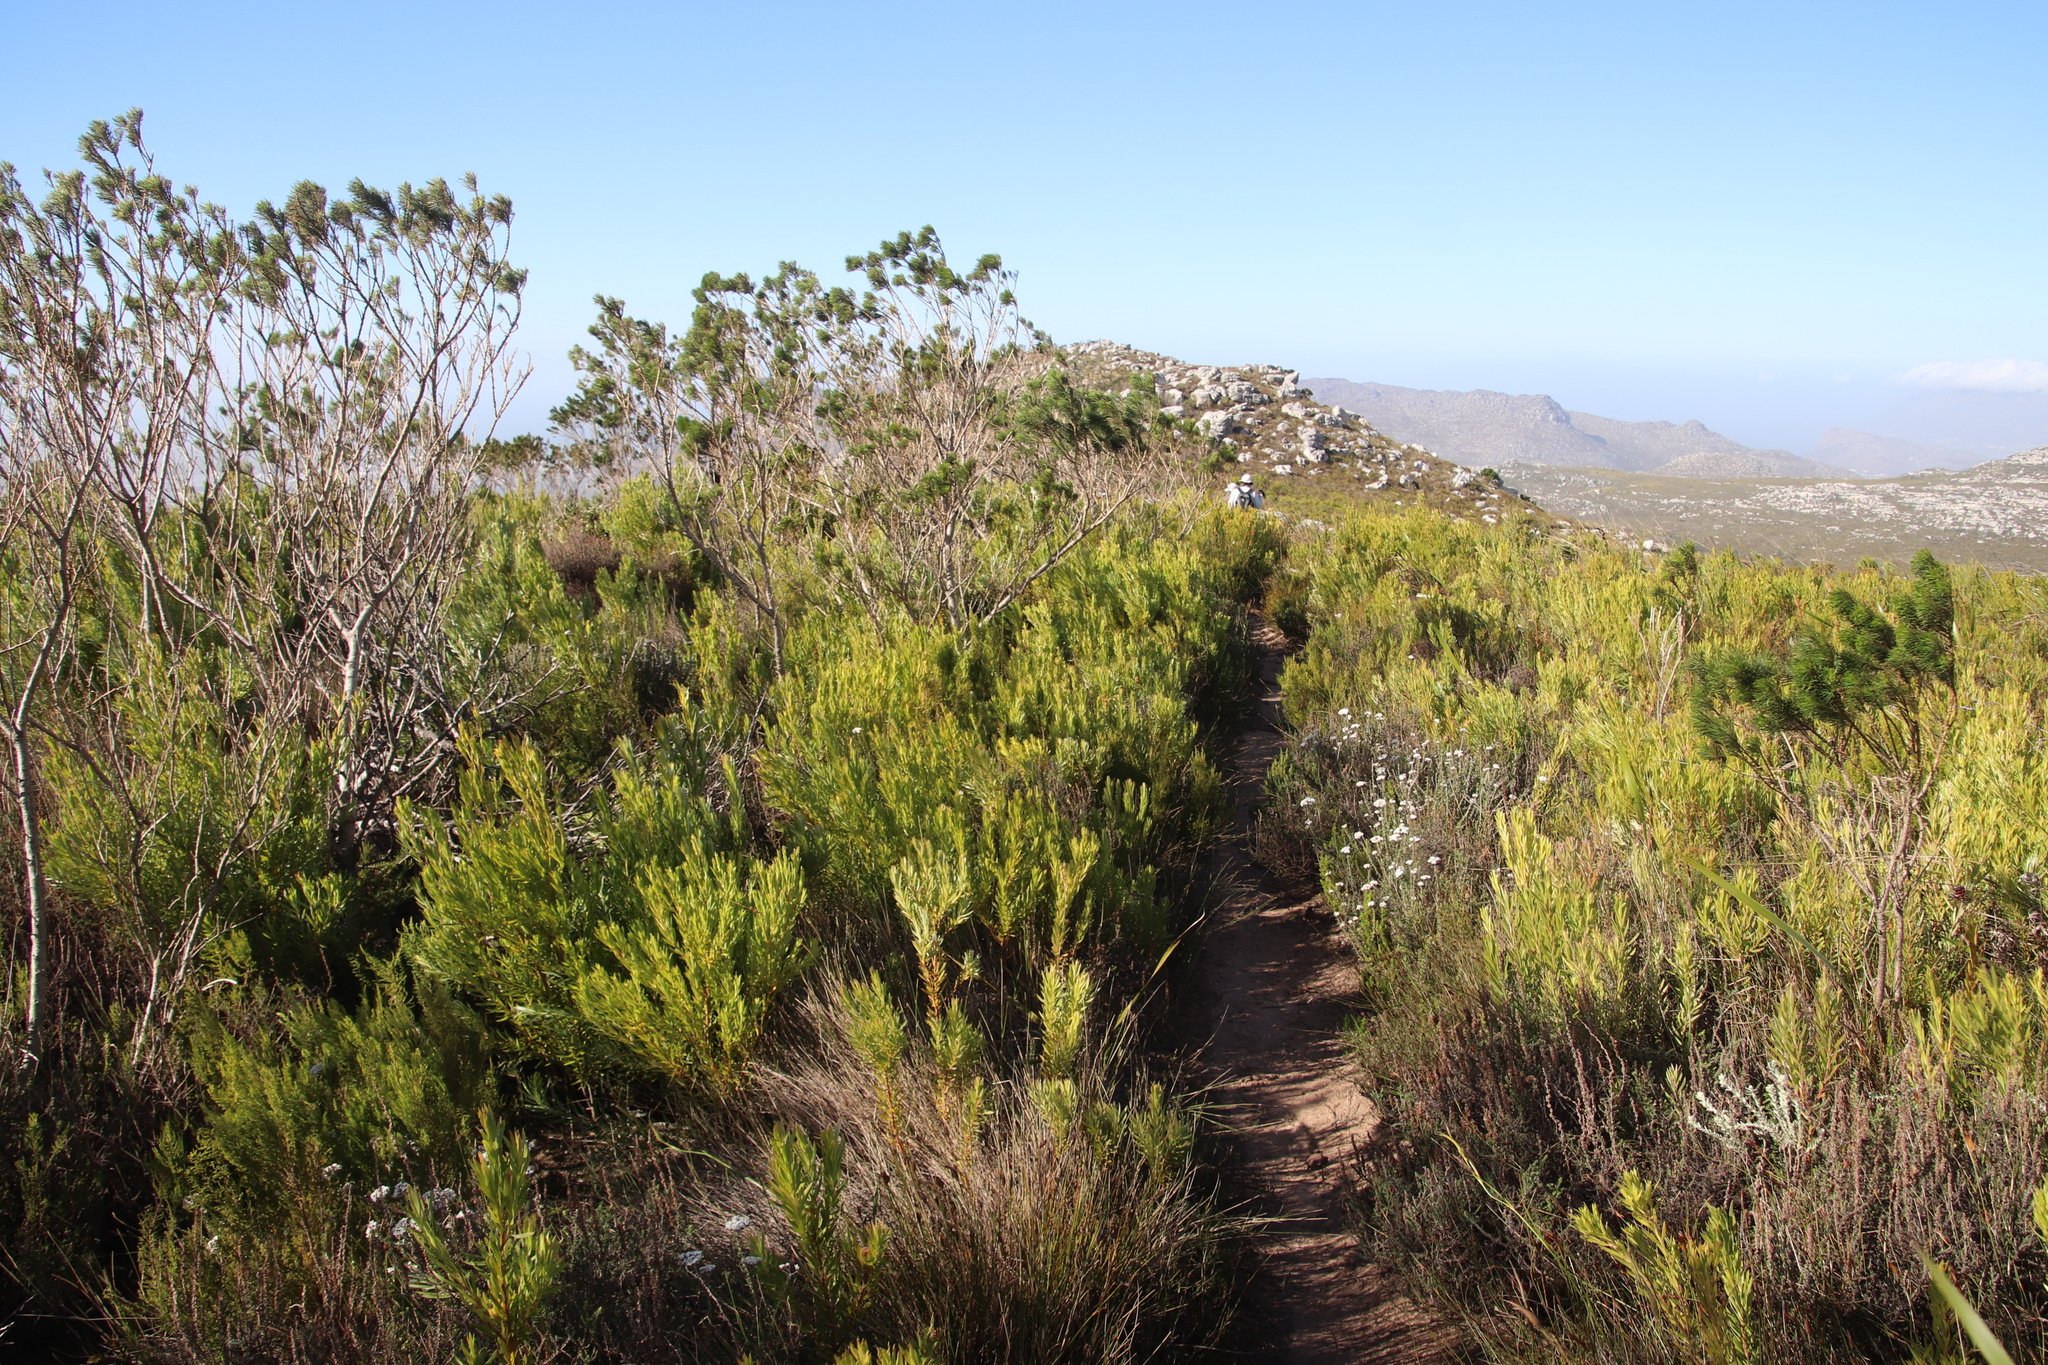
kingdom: Plantae
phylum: Tracheophyta
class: Magnoliopsida
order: Fabales
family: Fabaceae
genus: Psoralea
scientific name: Psoralea pinnata
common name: African scurfpea
